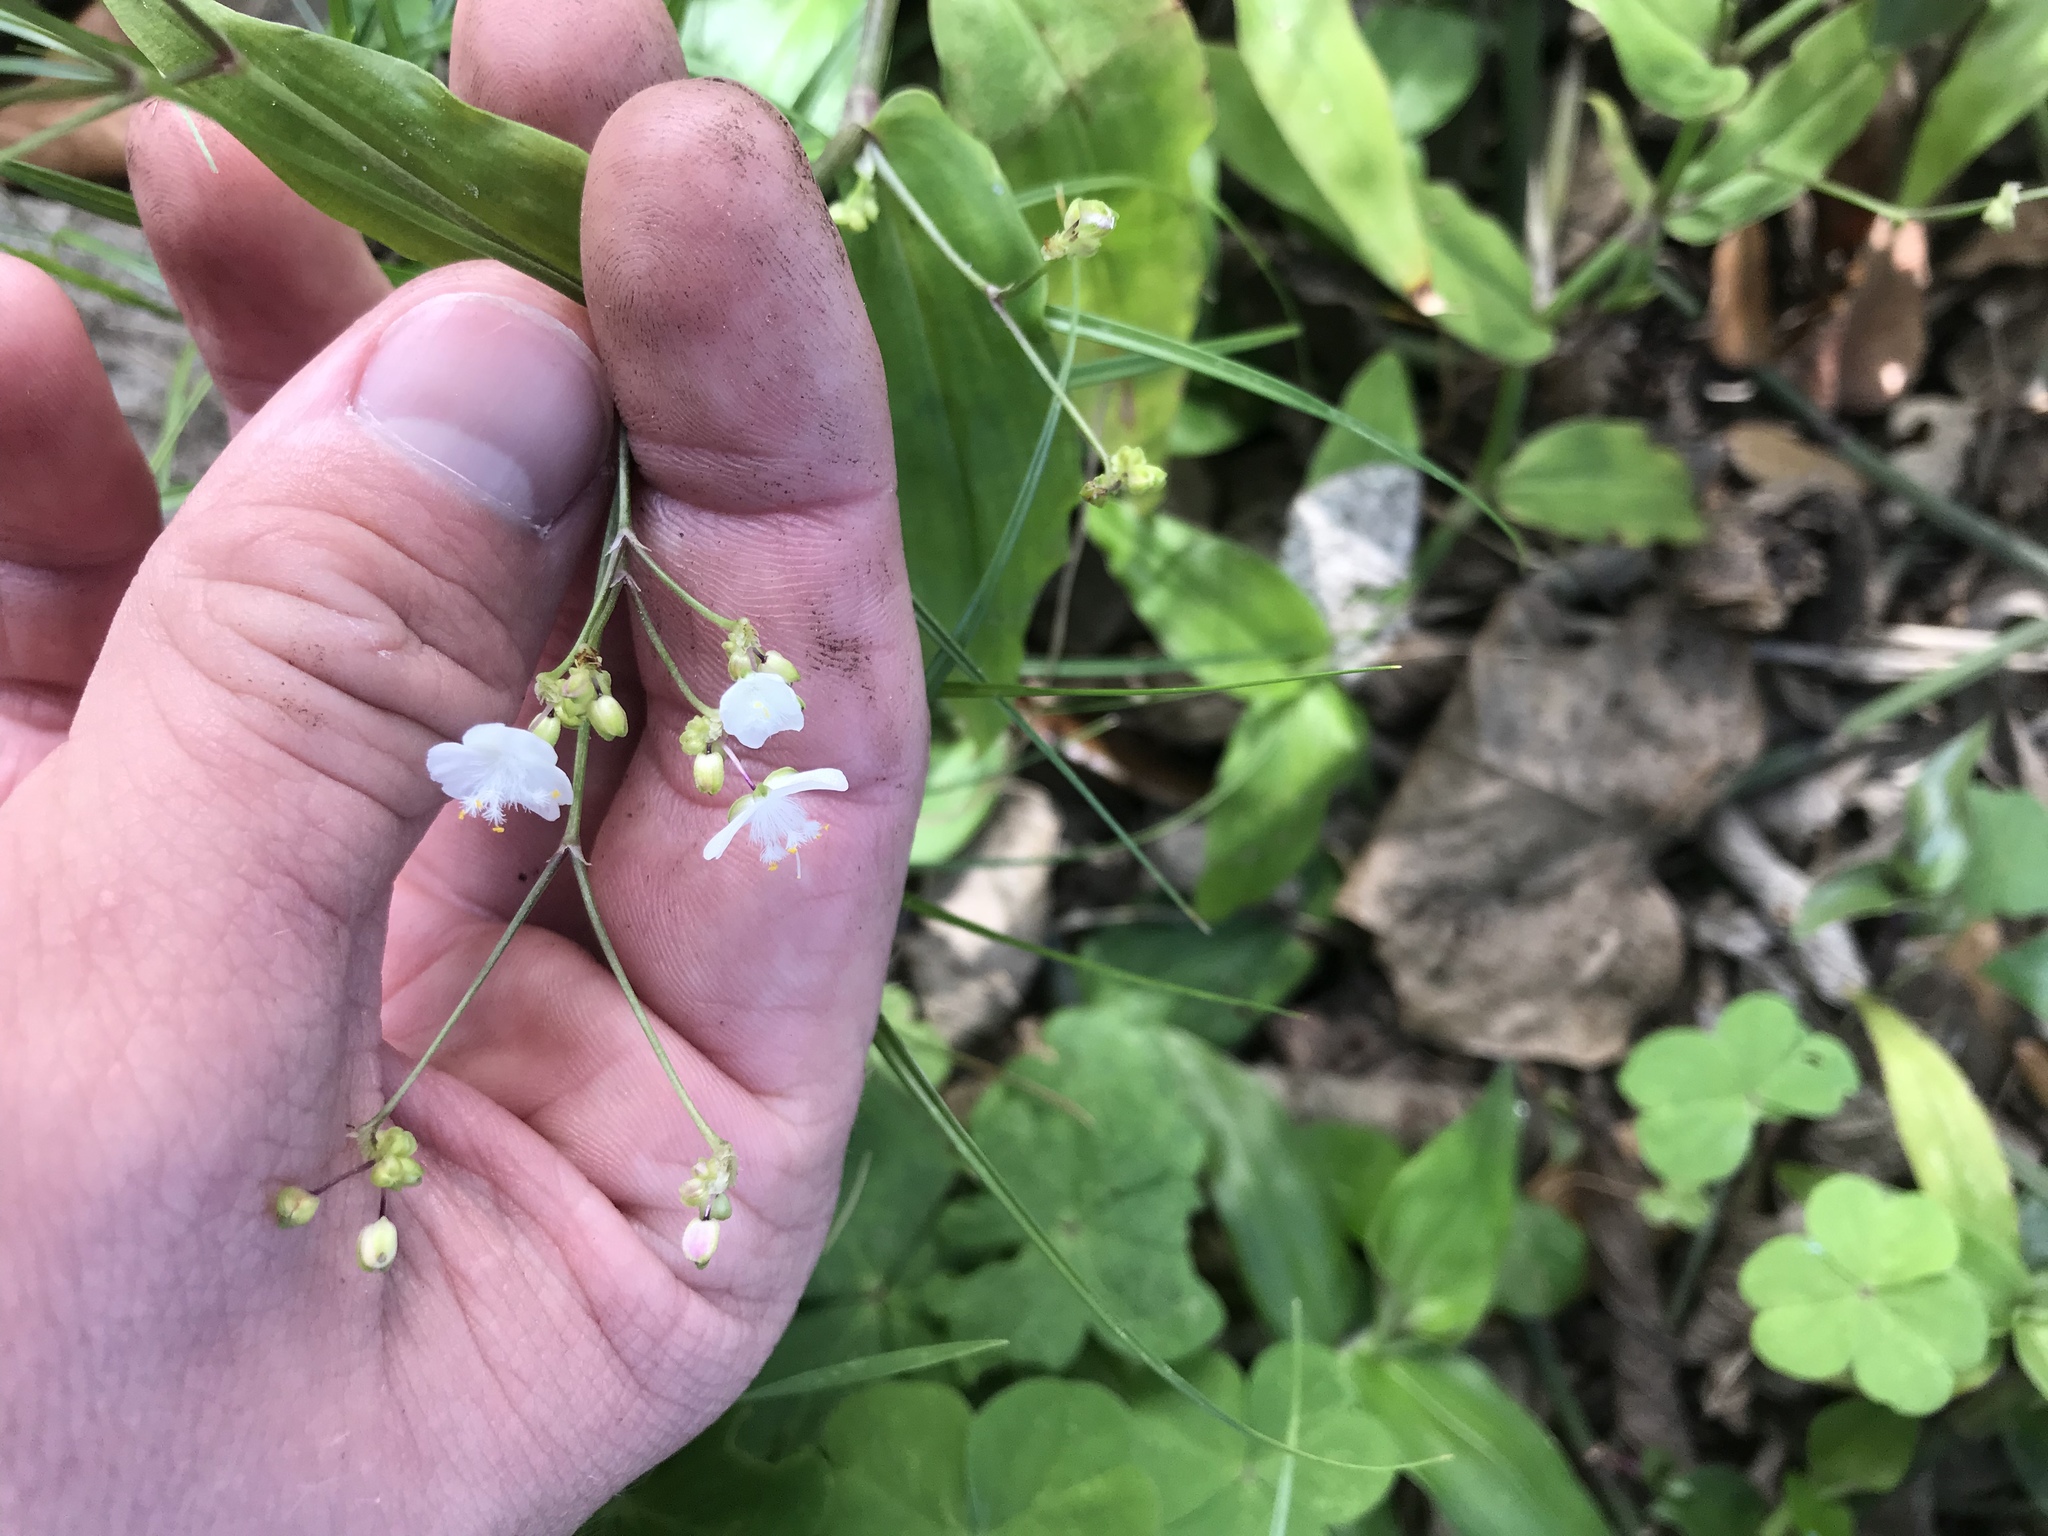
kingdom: Plantae
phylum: Tracheophyta
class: Liliopsida
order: Commelinales
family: Commelinaceae
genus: Gibasis
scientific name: Gibasis pellucida
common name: Dotted bridalveil
